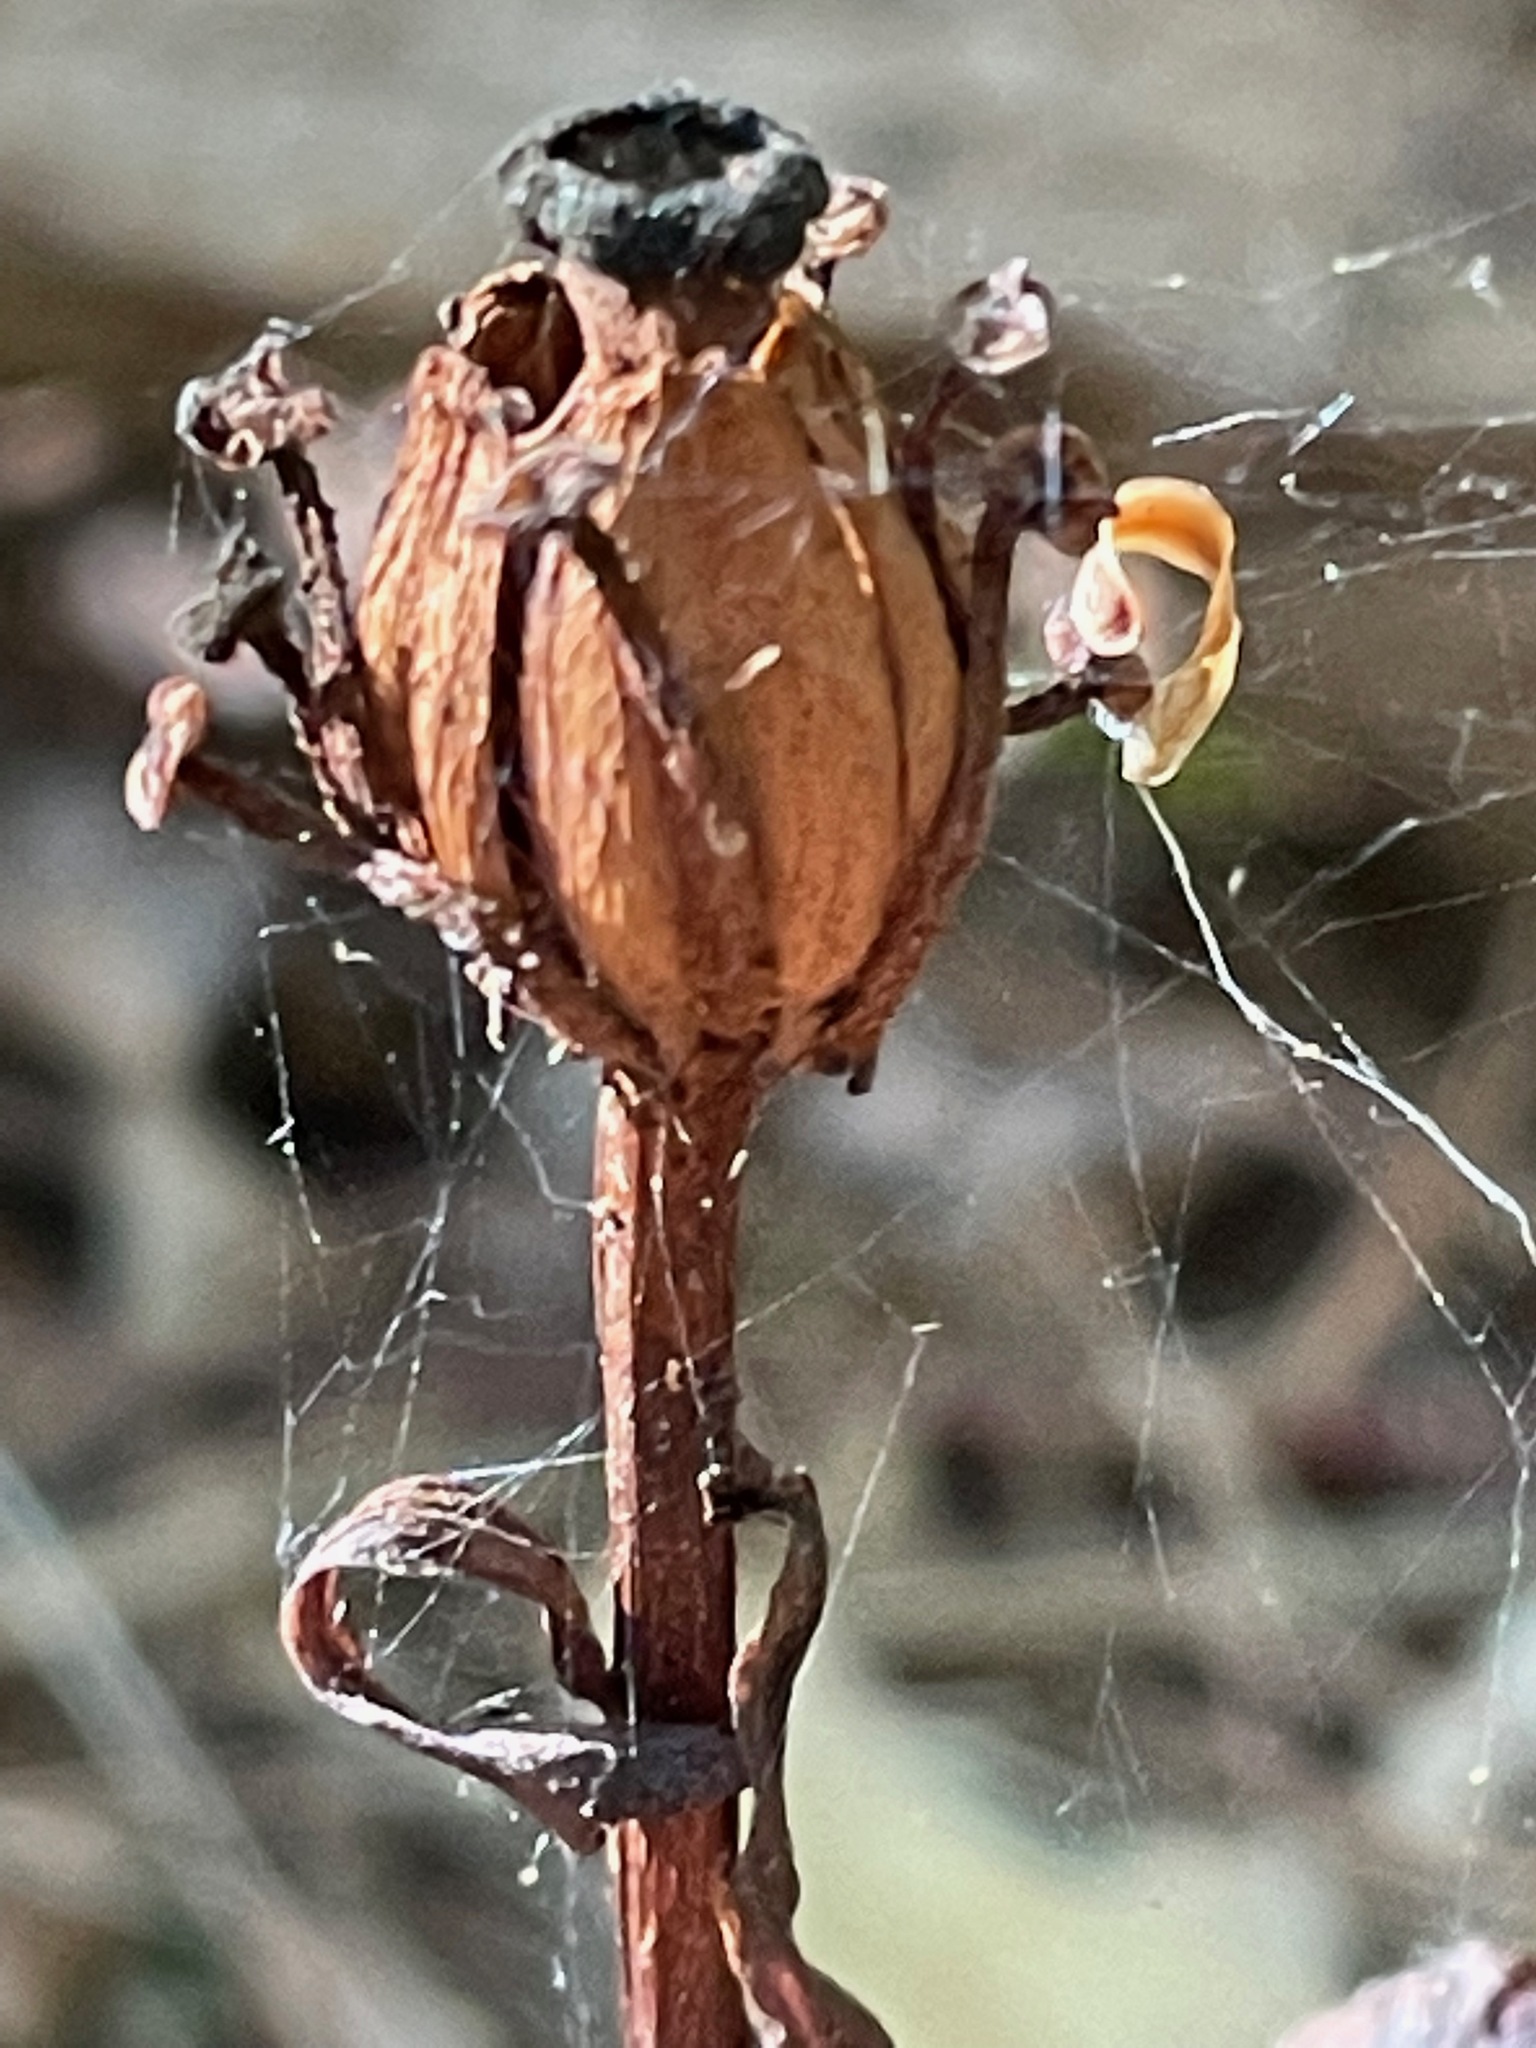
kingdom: Plantae
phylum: Tracheophyta
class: Magnoliopsida
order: Ericales
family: Ericaceae
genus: Monotropa
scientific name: Monotropa uniflora
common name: Convulsion root
